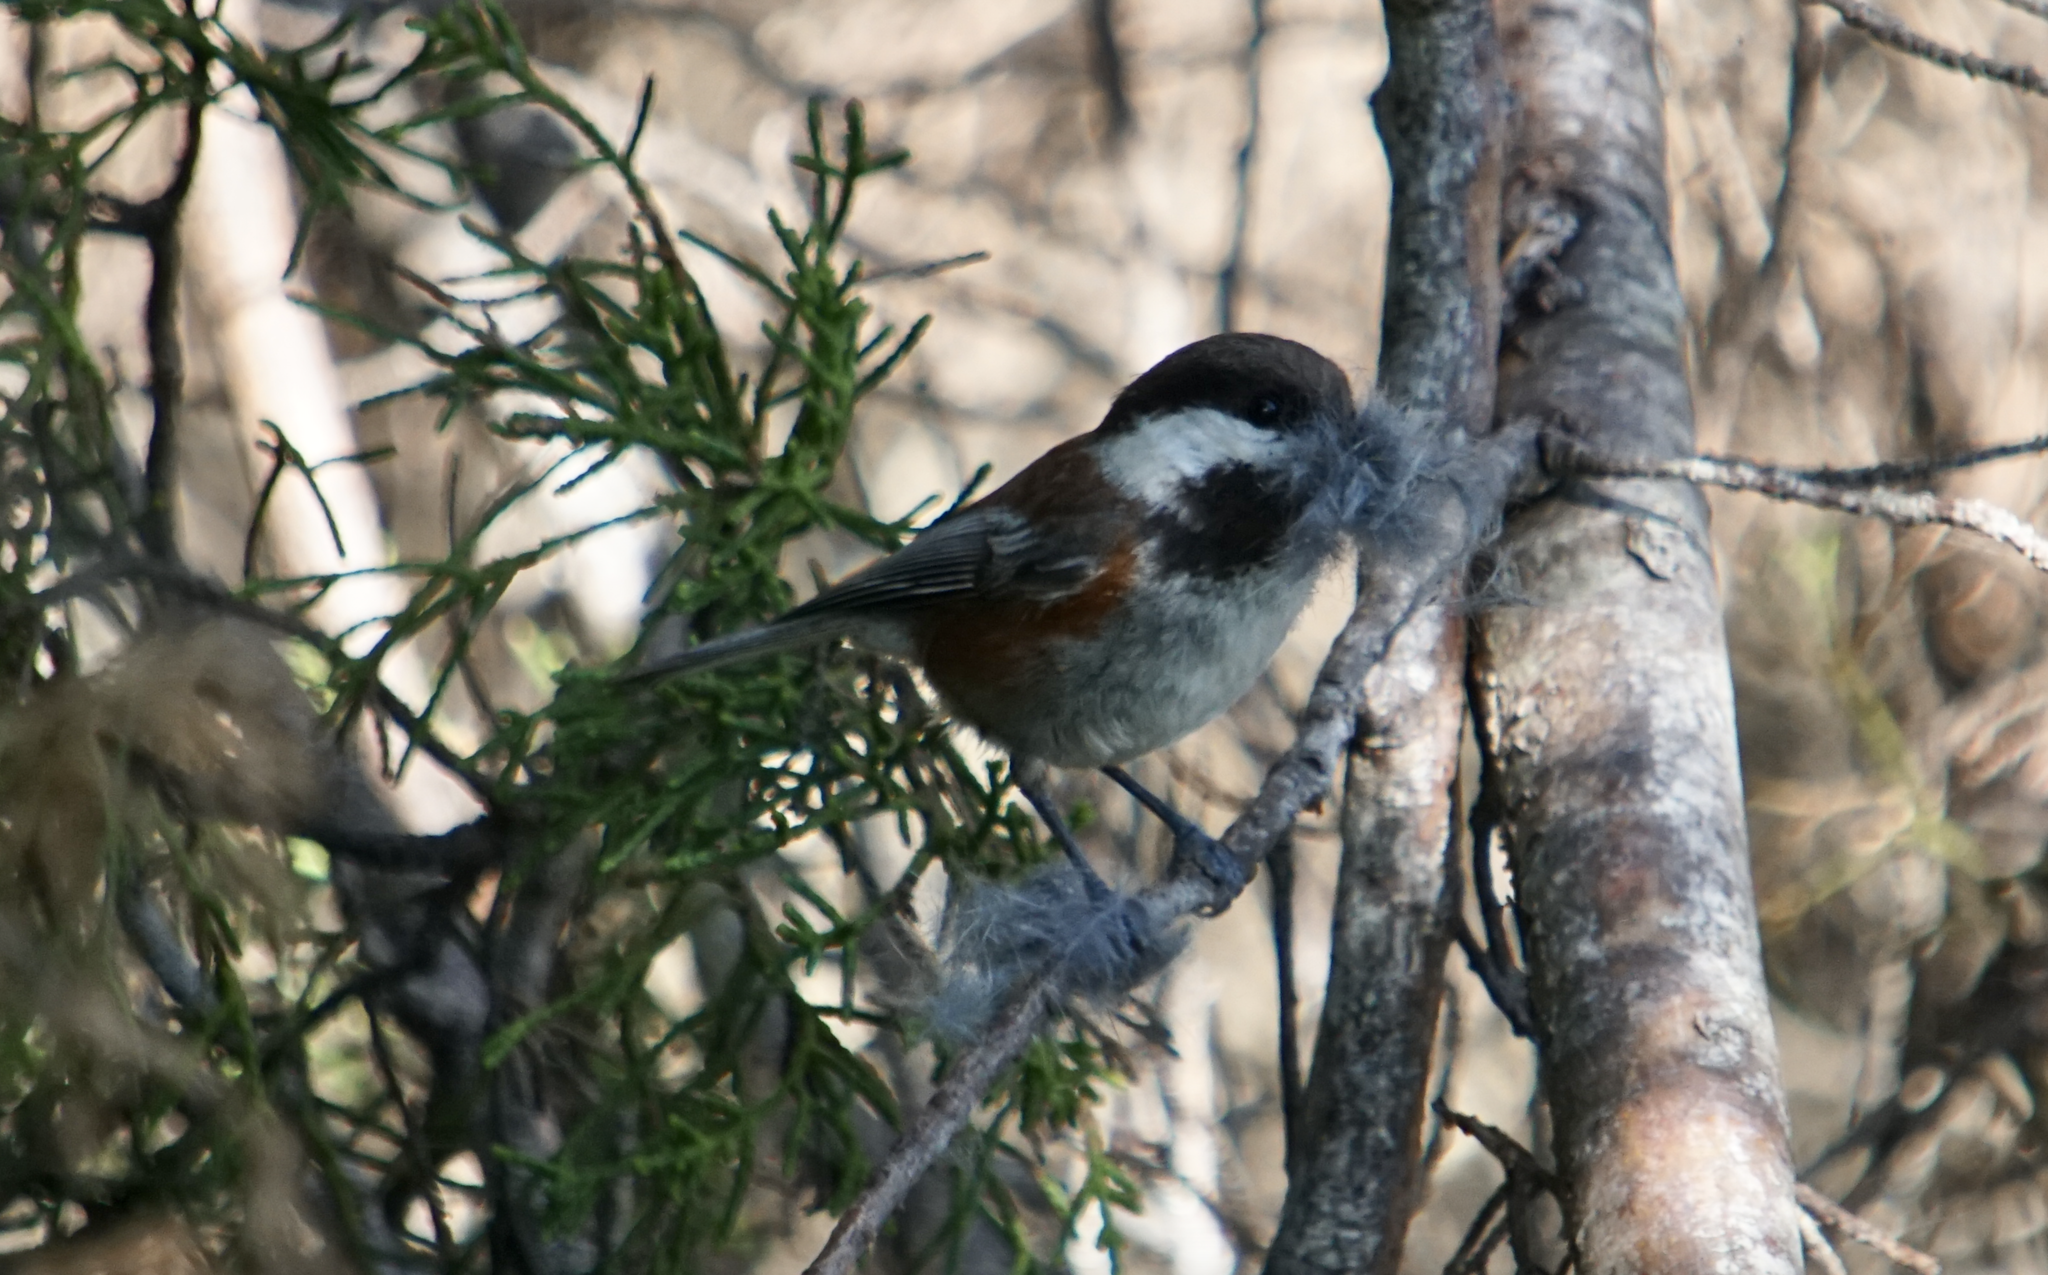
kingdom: Animalia
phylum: Chordata
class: Aves
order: Passeriformes
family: Paridae
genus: Poecile
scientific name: Poecile rufescens
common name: Chestnut-backed chickadee
